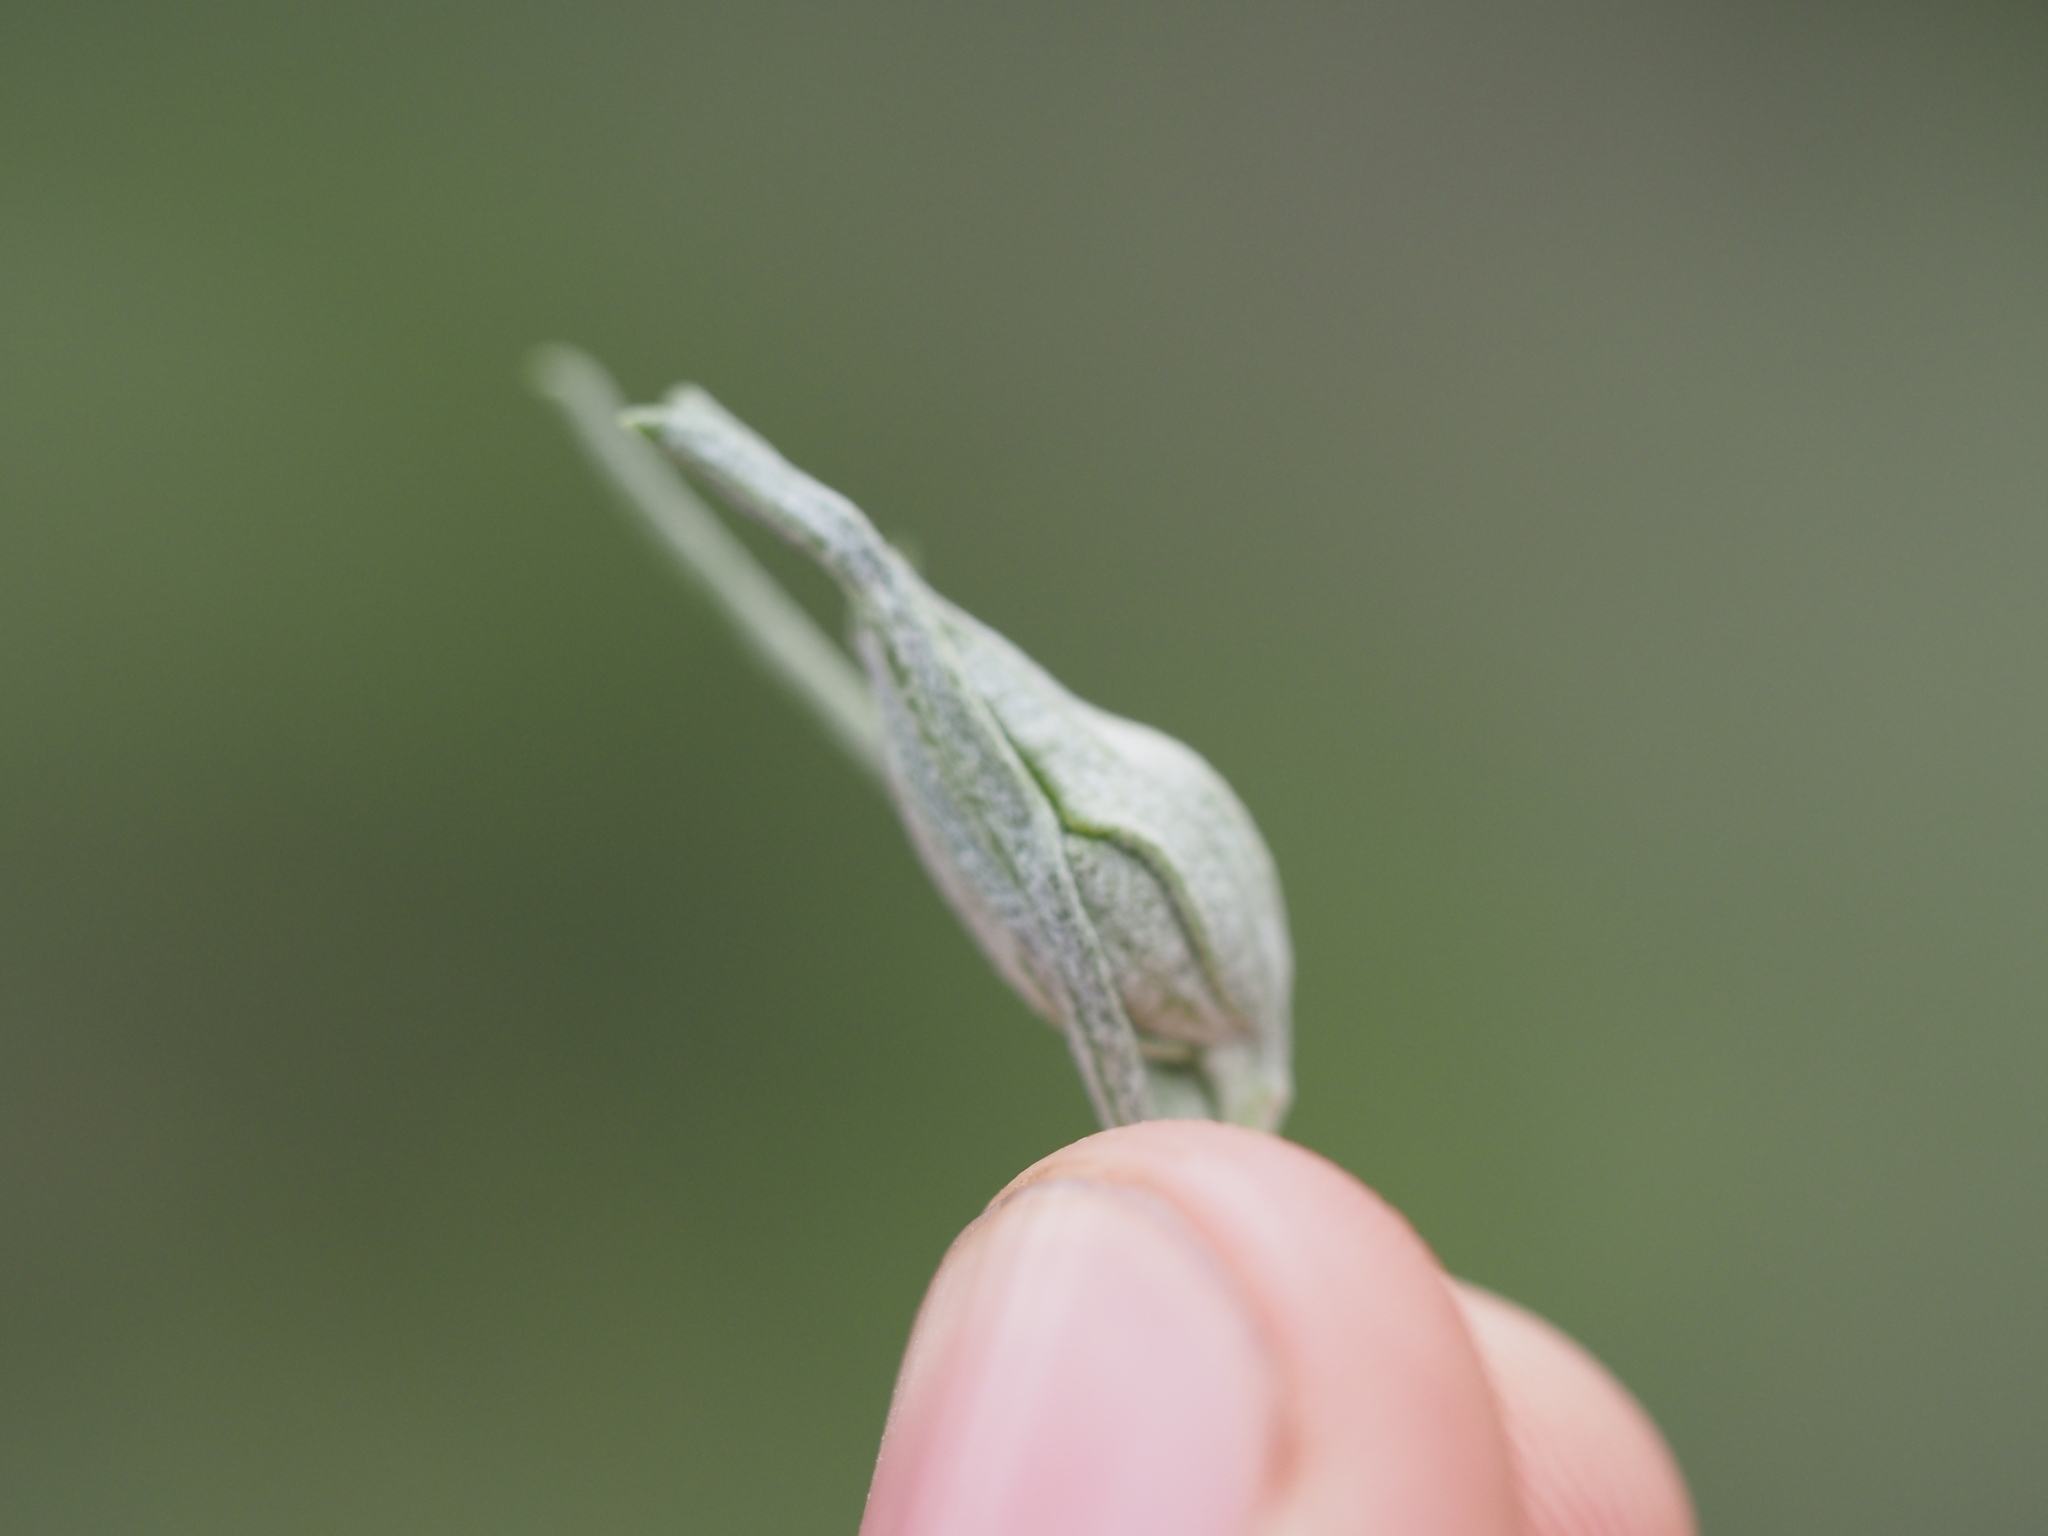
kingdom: Animalia
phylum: Arthropoda
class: Insecta
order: Lepidoptera
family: Gelechiidae
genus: Gnorimoschema
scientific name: Gnorimoschema octomaculella
